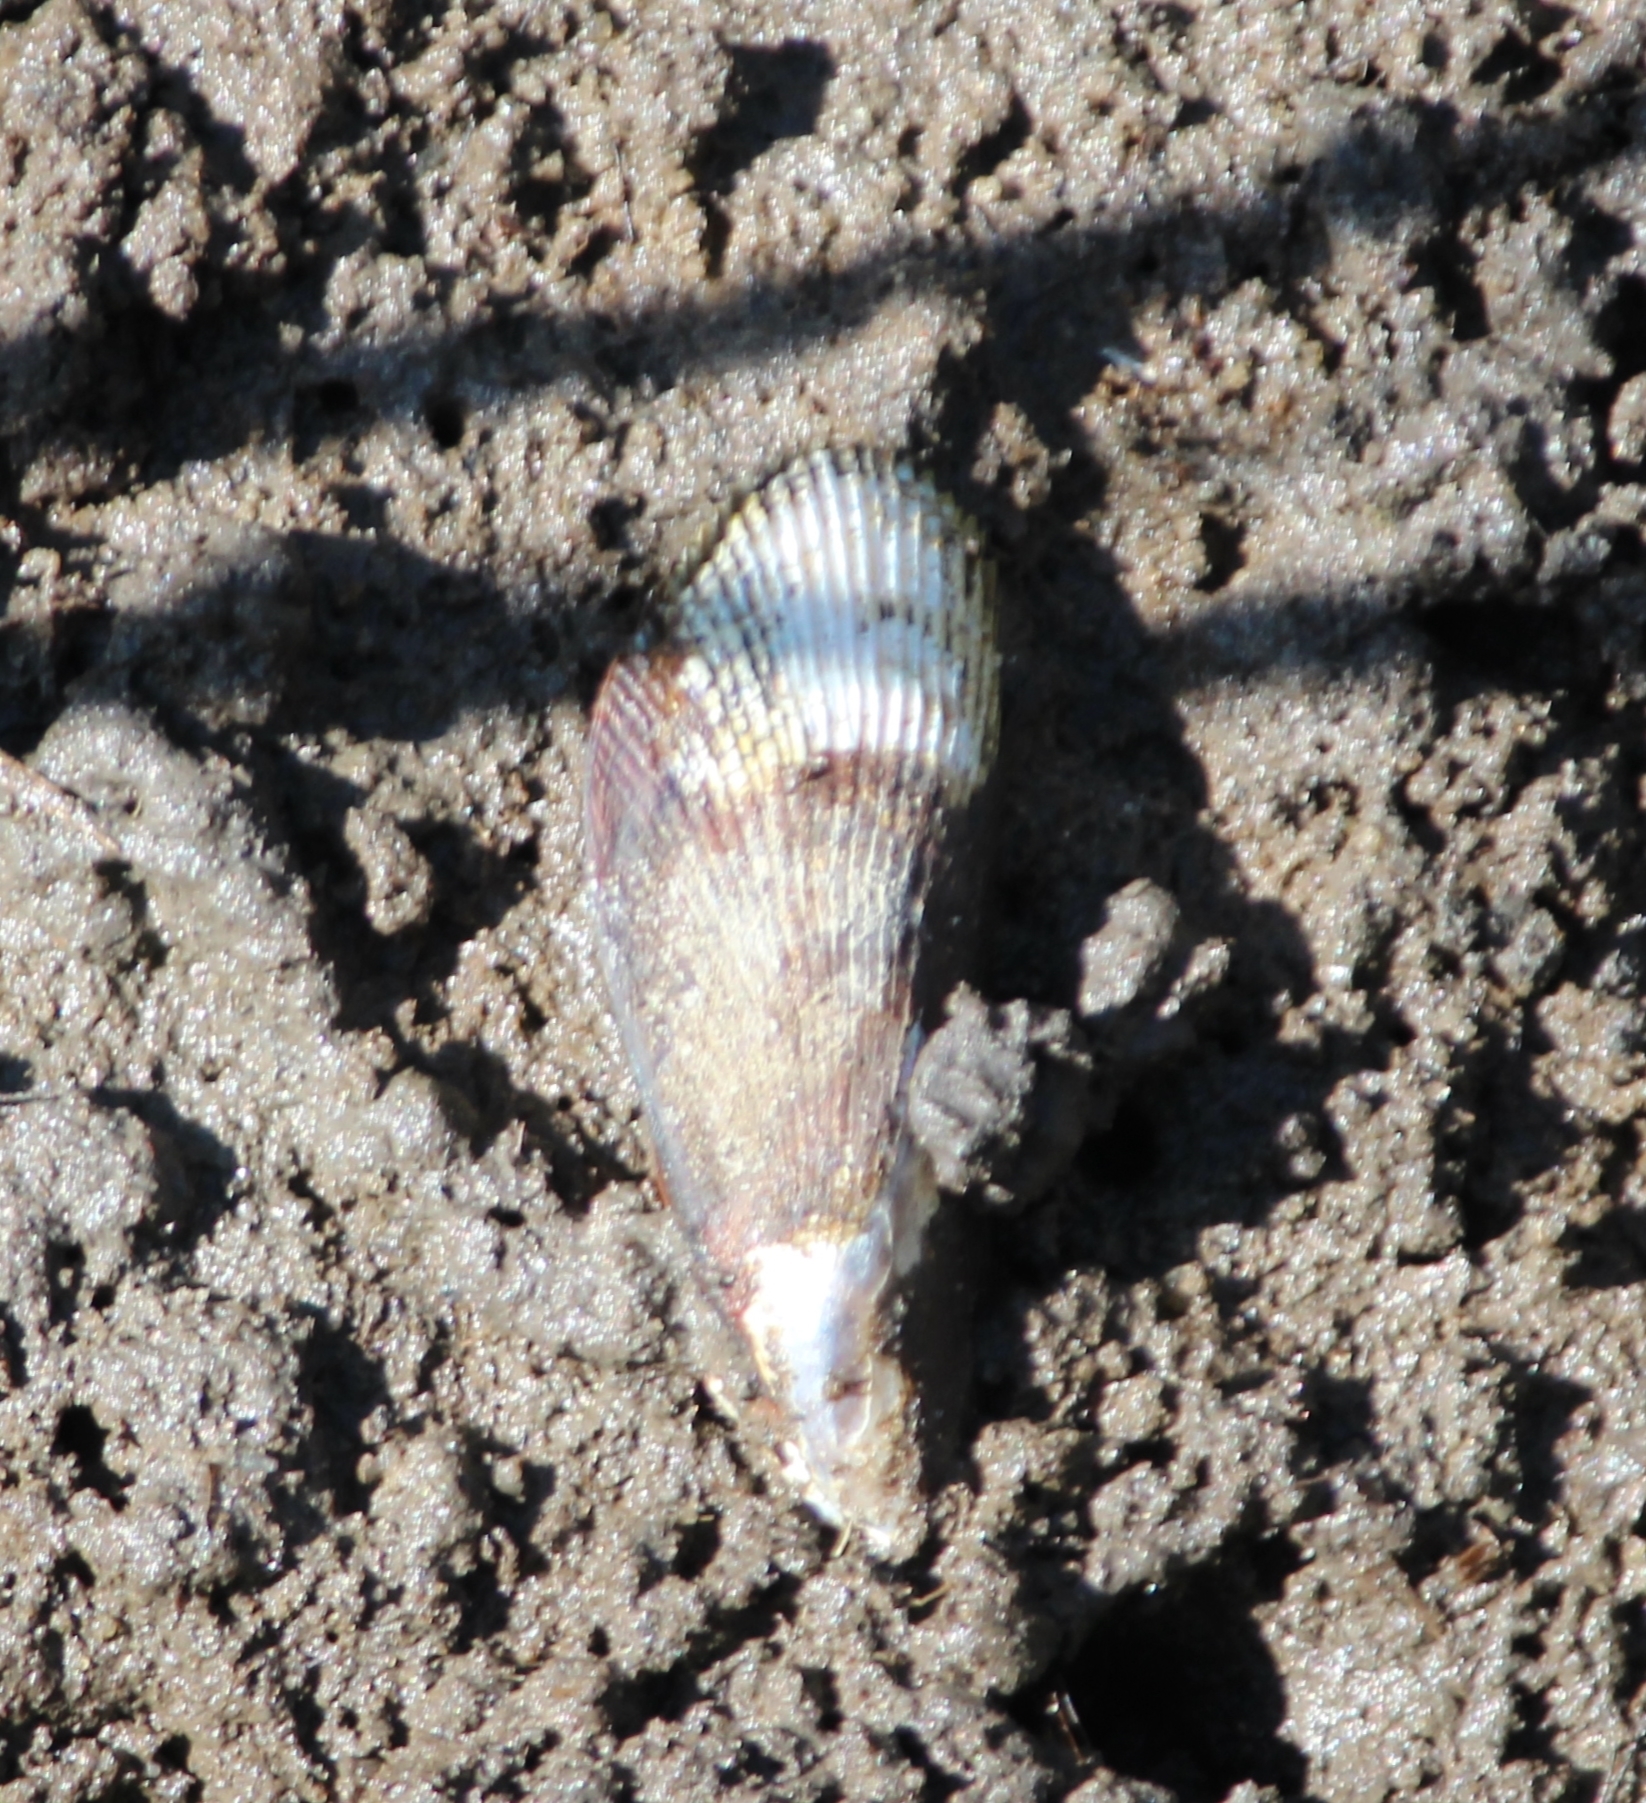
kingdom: Animalia
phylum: Mollusca
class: Bivalvia
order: Mytilida
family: Mytilidae
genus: Geukensia
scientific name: Geukensia demissa
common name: Ribbed mussel
